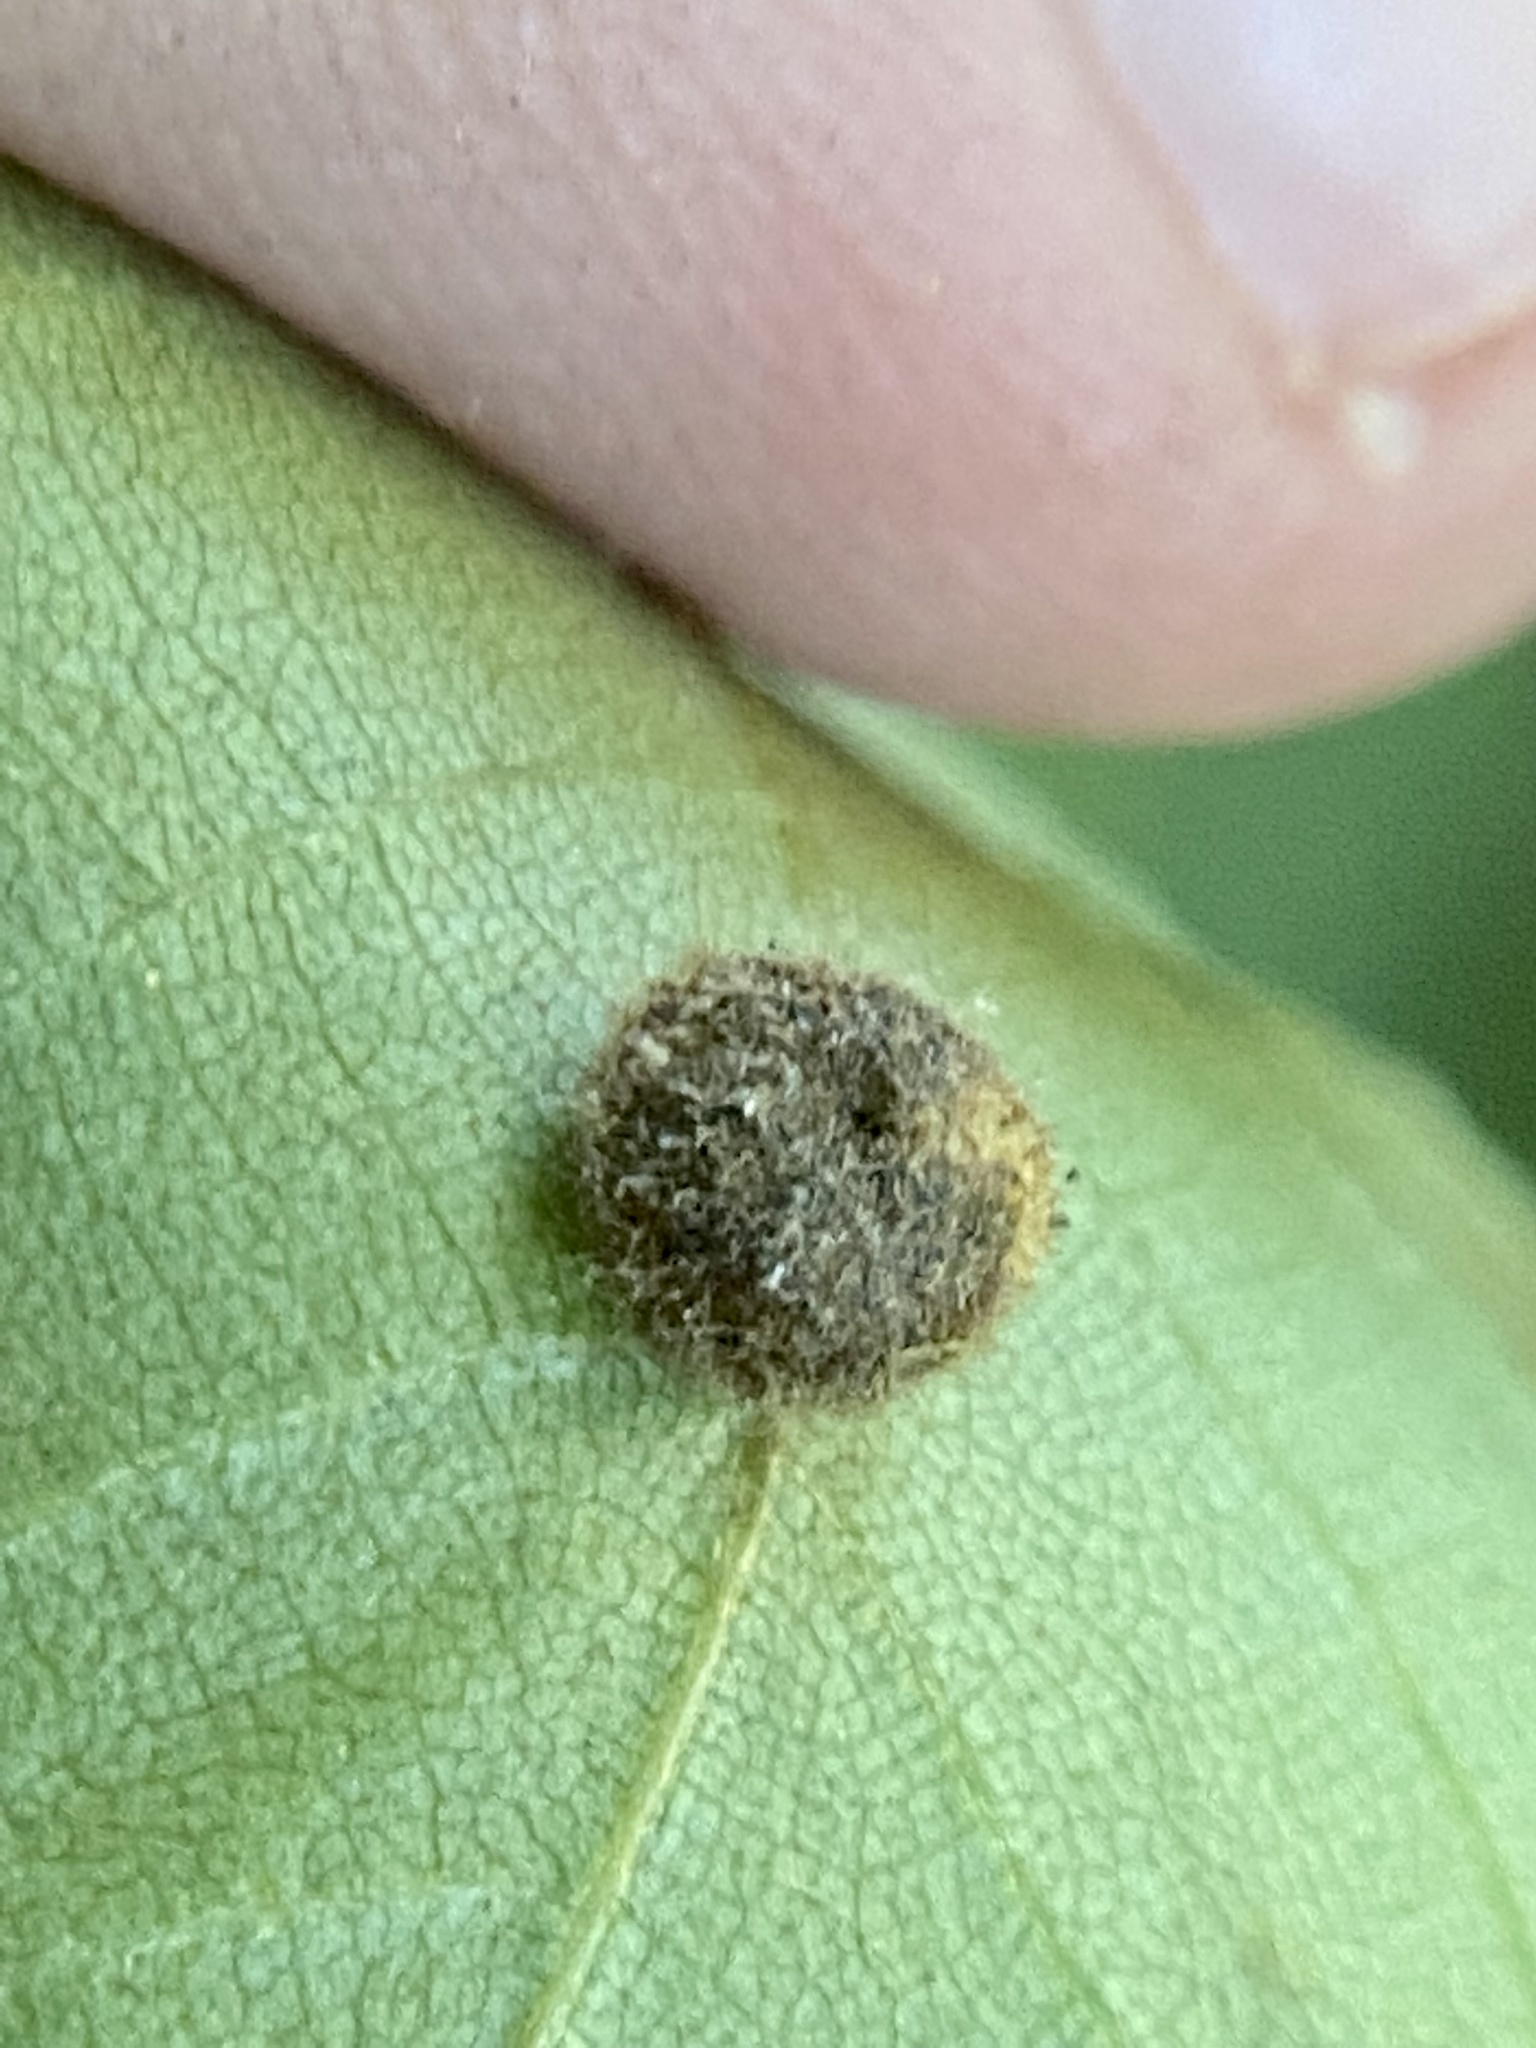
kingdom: Animalia
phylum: Arthropoda
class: Insecta
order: Diptera
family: Cecidomyiidae
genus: Caryomyia
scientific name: Caryomyia thompsoni
